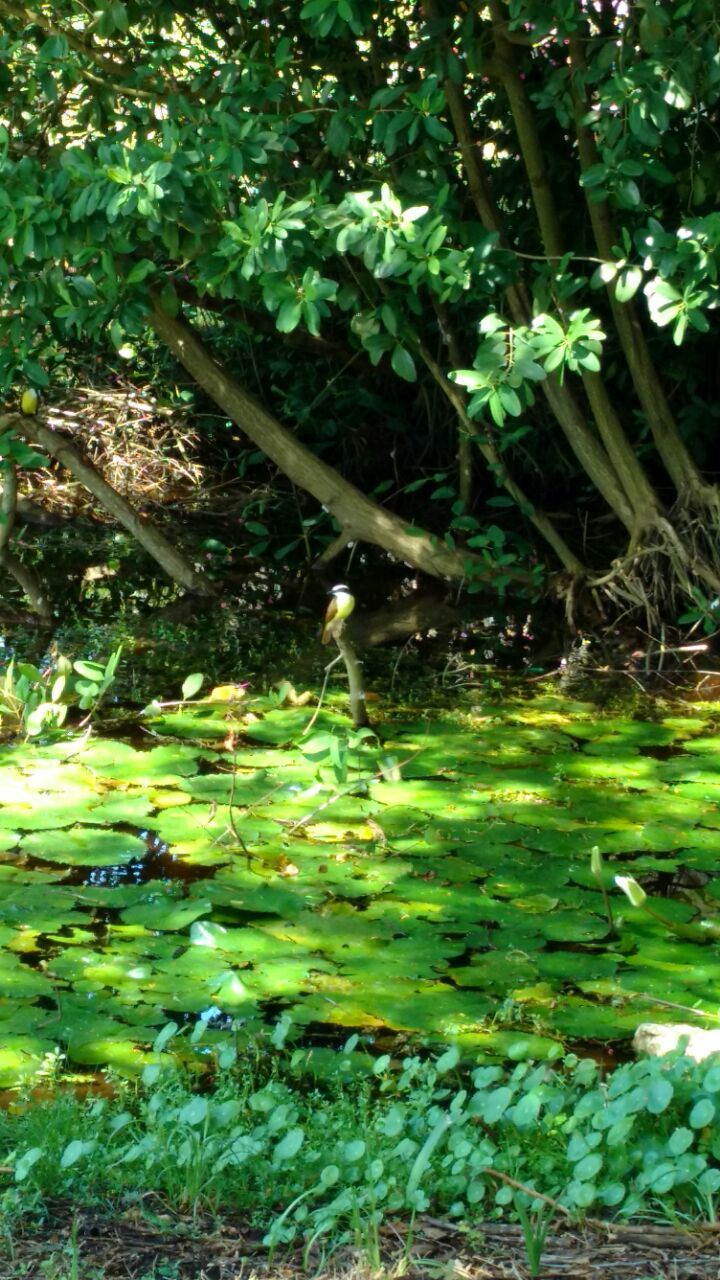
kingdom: Animalia
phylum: Chordata
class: Aves
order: Passeriformes
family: Tyrannidae
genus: Pitangus
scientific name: Pitangus sulphuratus
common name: Great kiskadee
